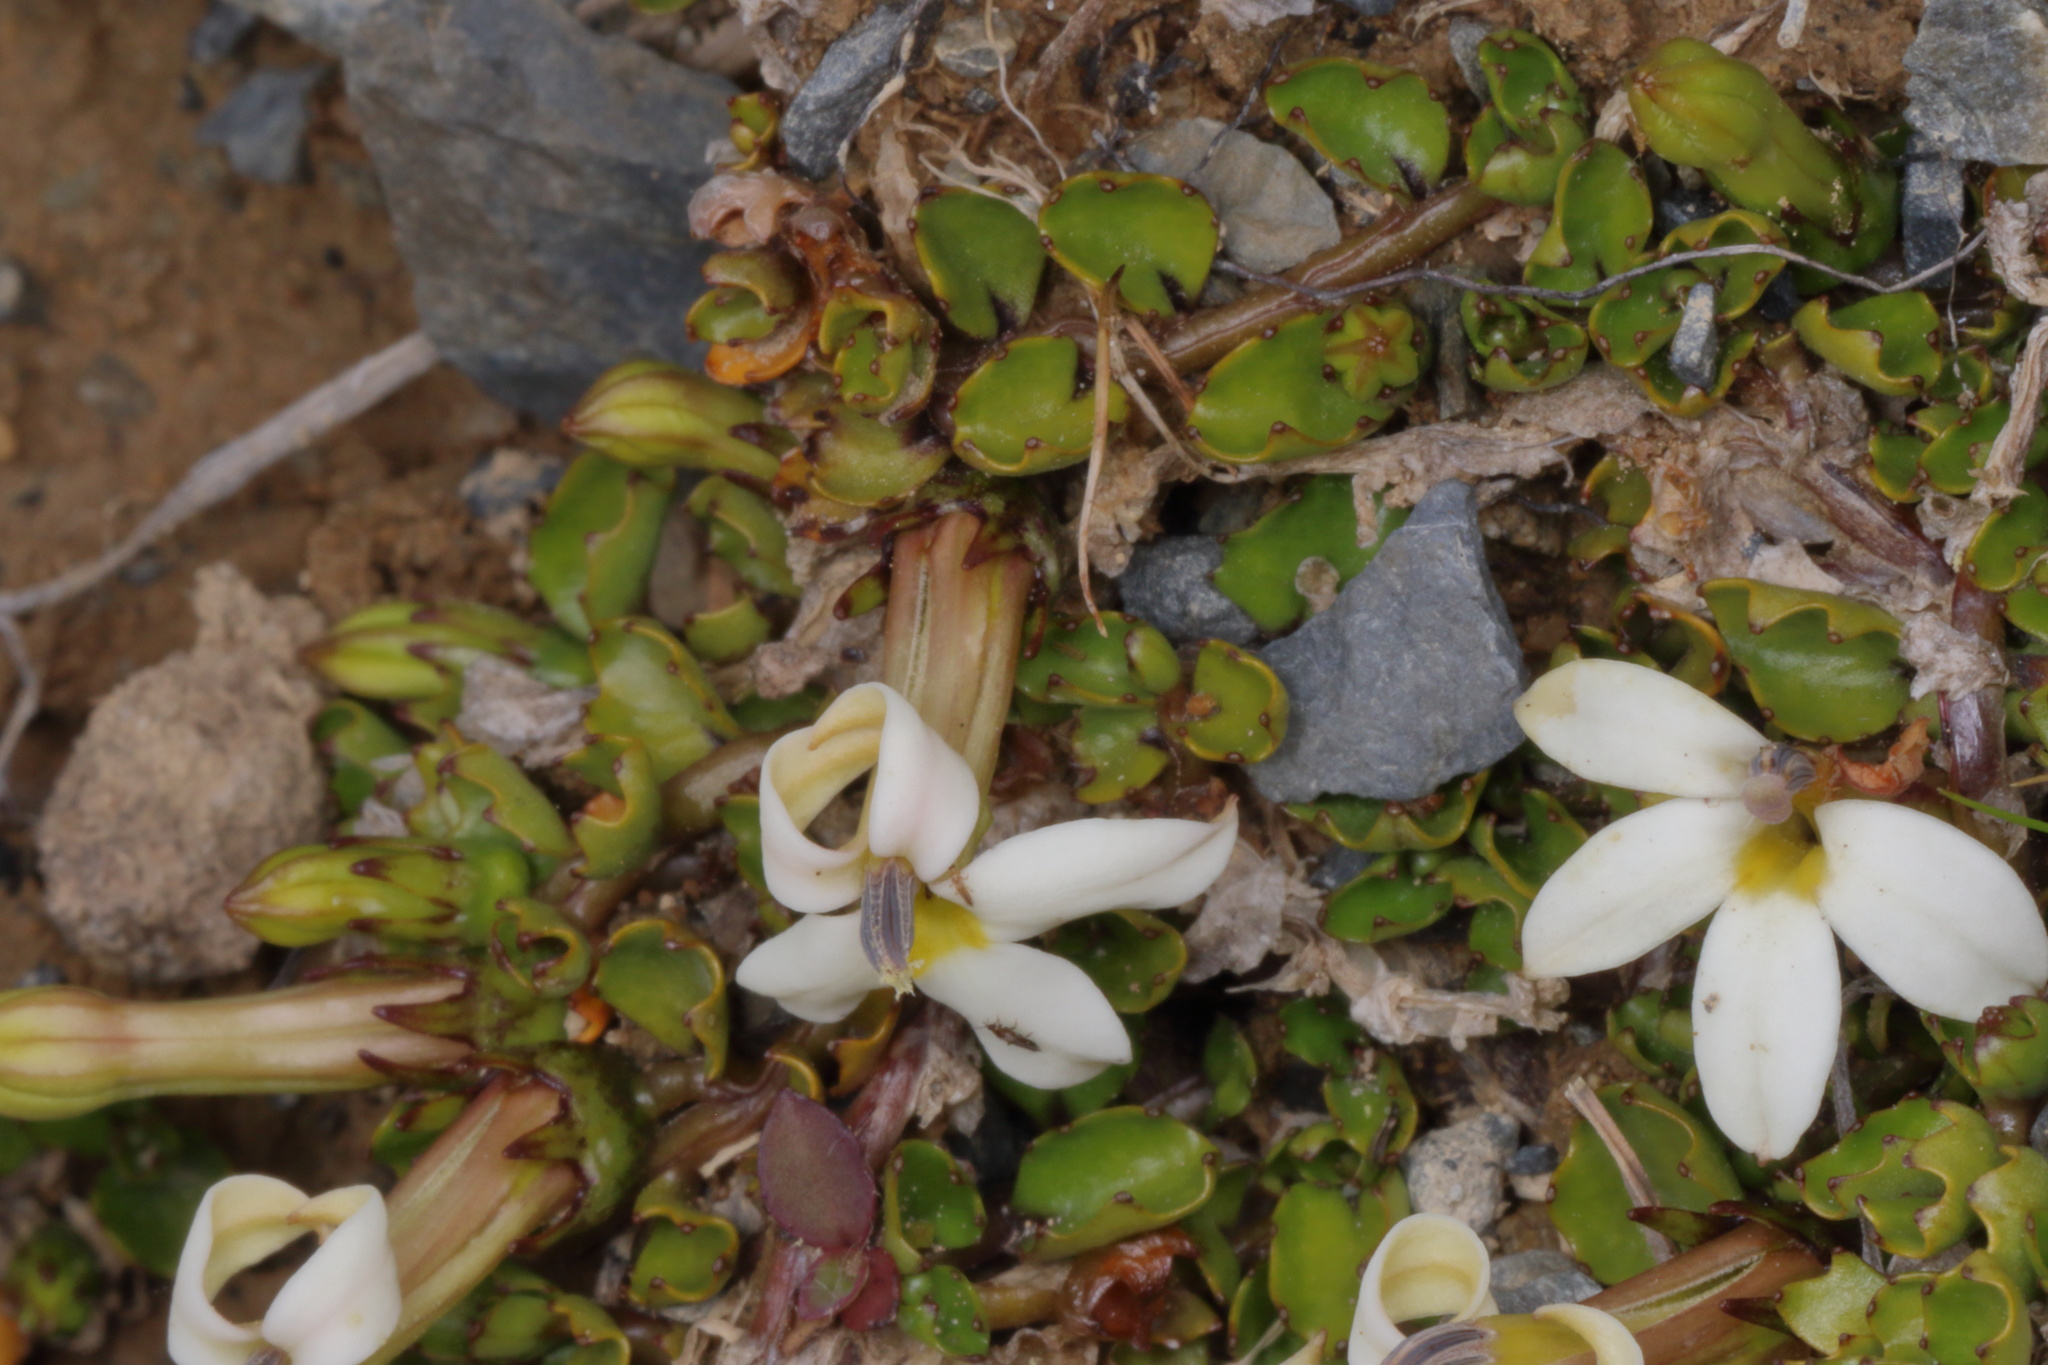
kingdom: Plantae
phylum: Tracheophyta
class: Magnoliopsida
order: Asterales
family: Campanulaceae
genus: Lobelia
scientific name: Lobelia macrodon
